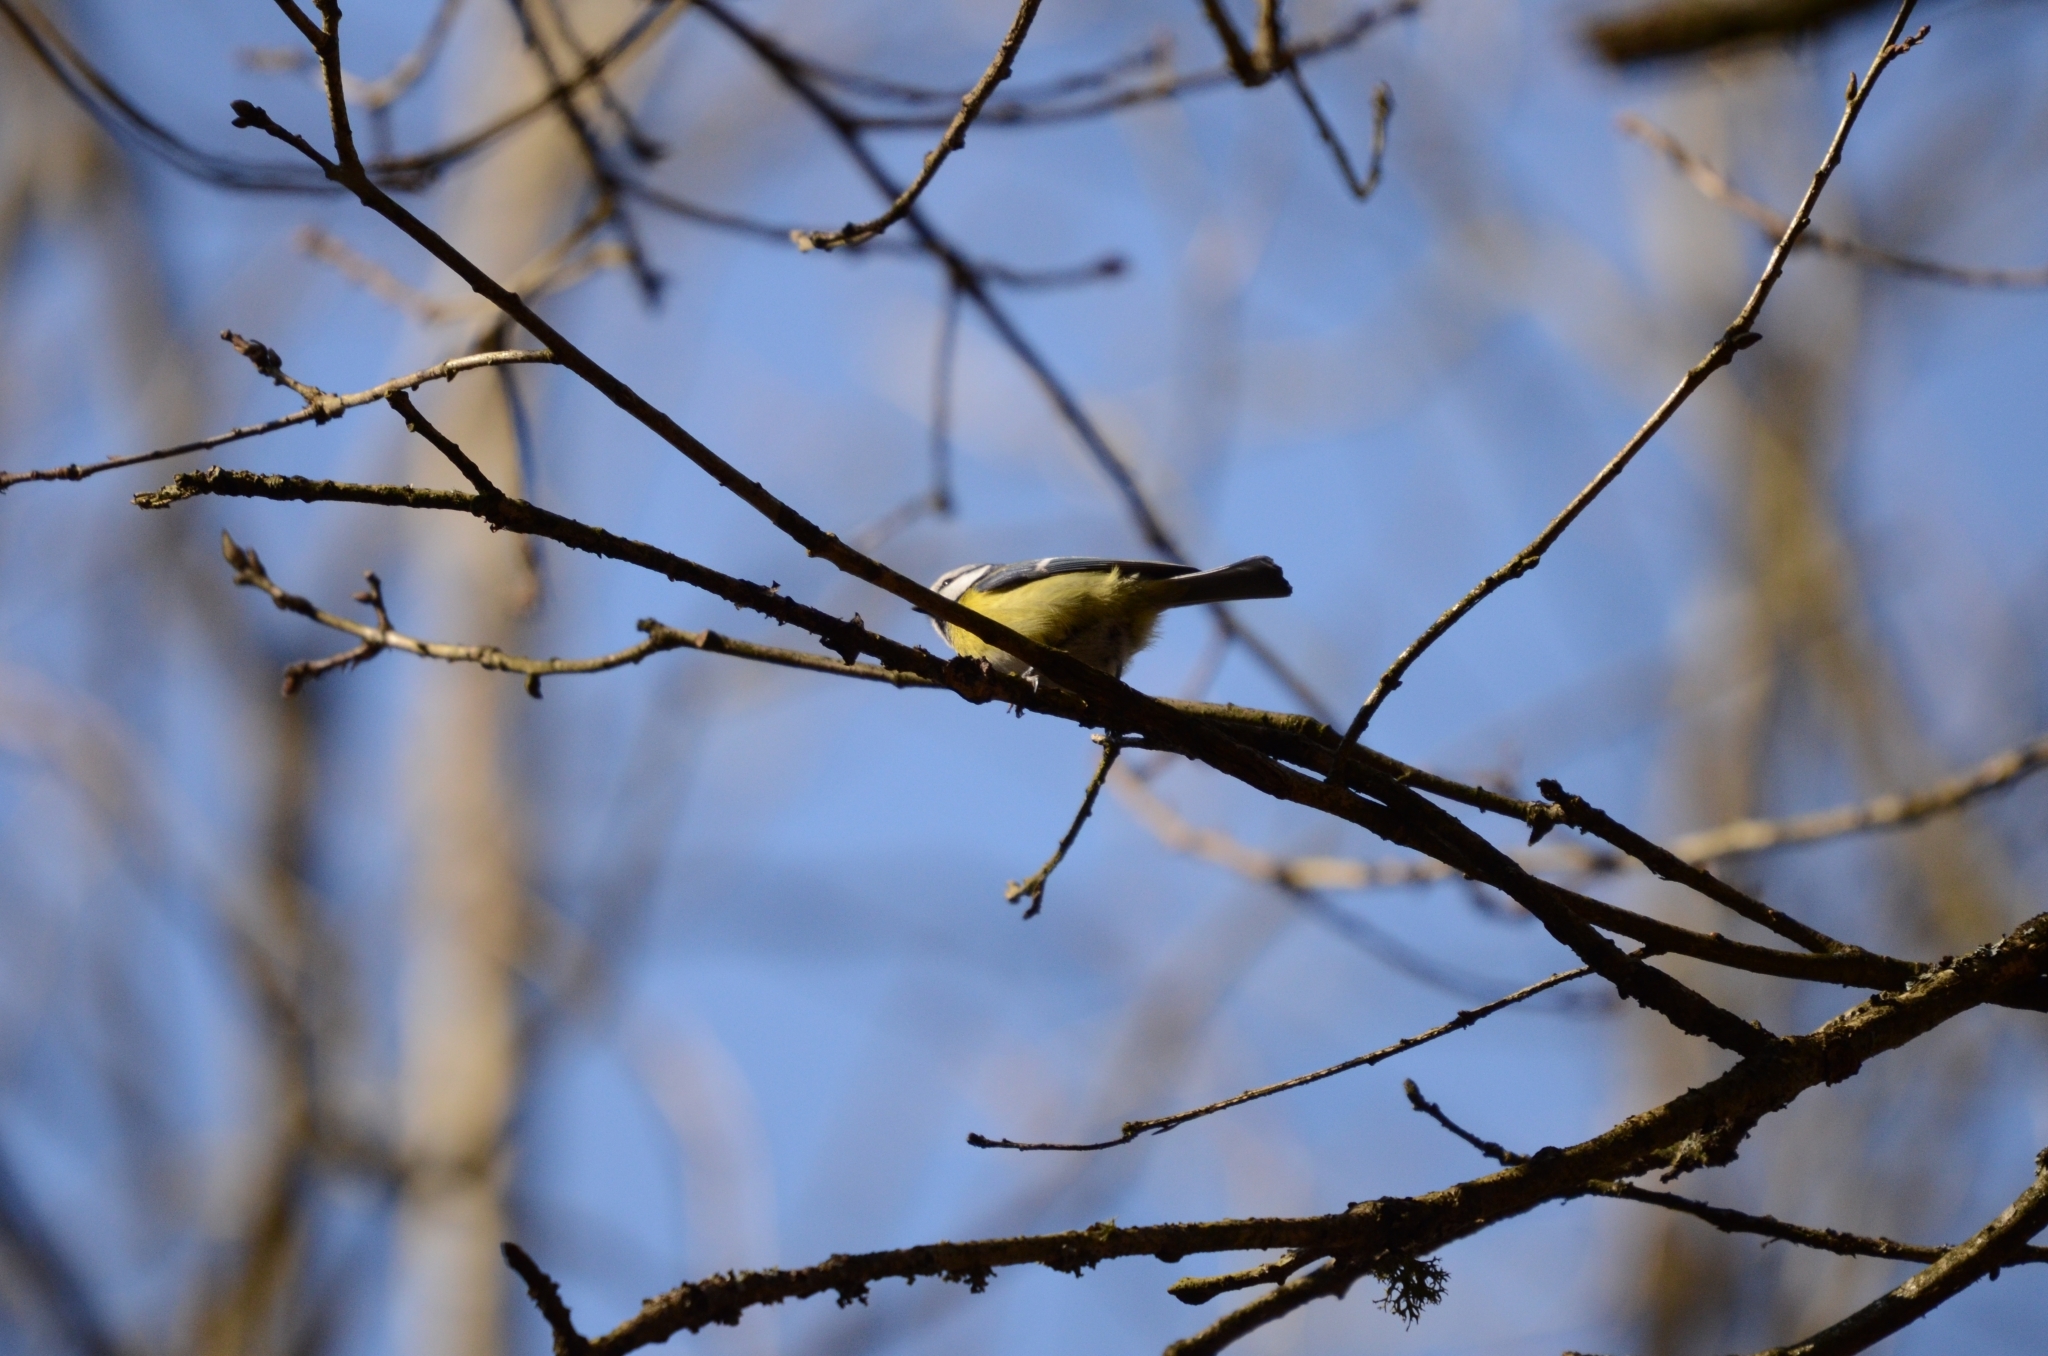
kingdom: Animalia
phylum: Chordata
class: Aves
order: Passeriformes
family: Paridae
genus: Cyanistes
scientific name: Cyanistes caeruleus
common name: Eurasian blue tit
